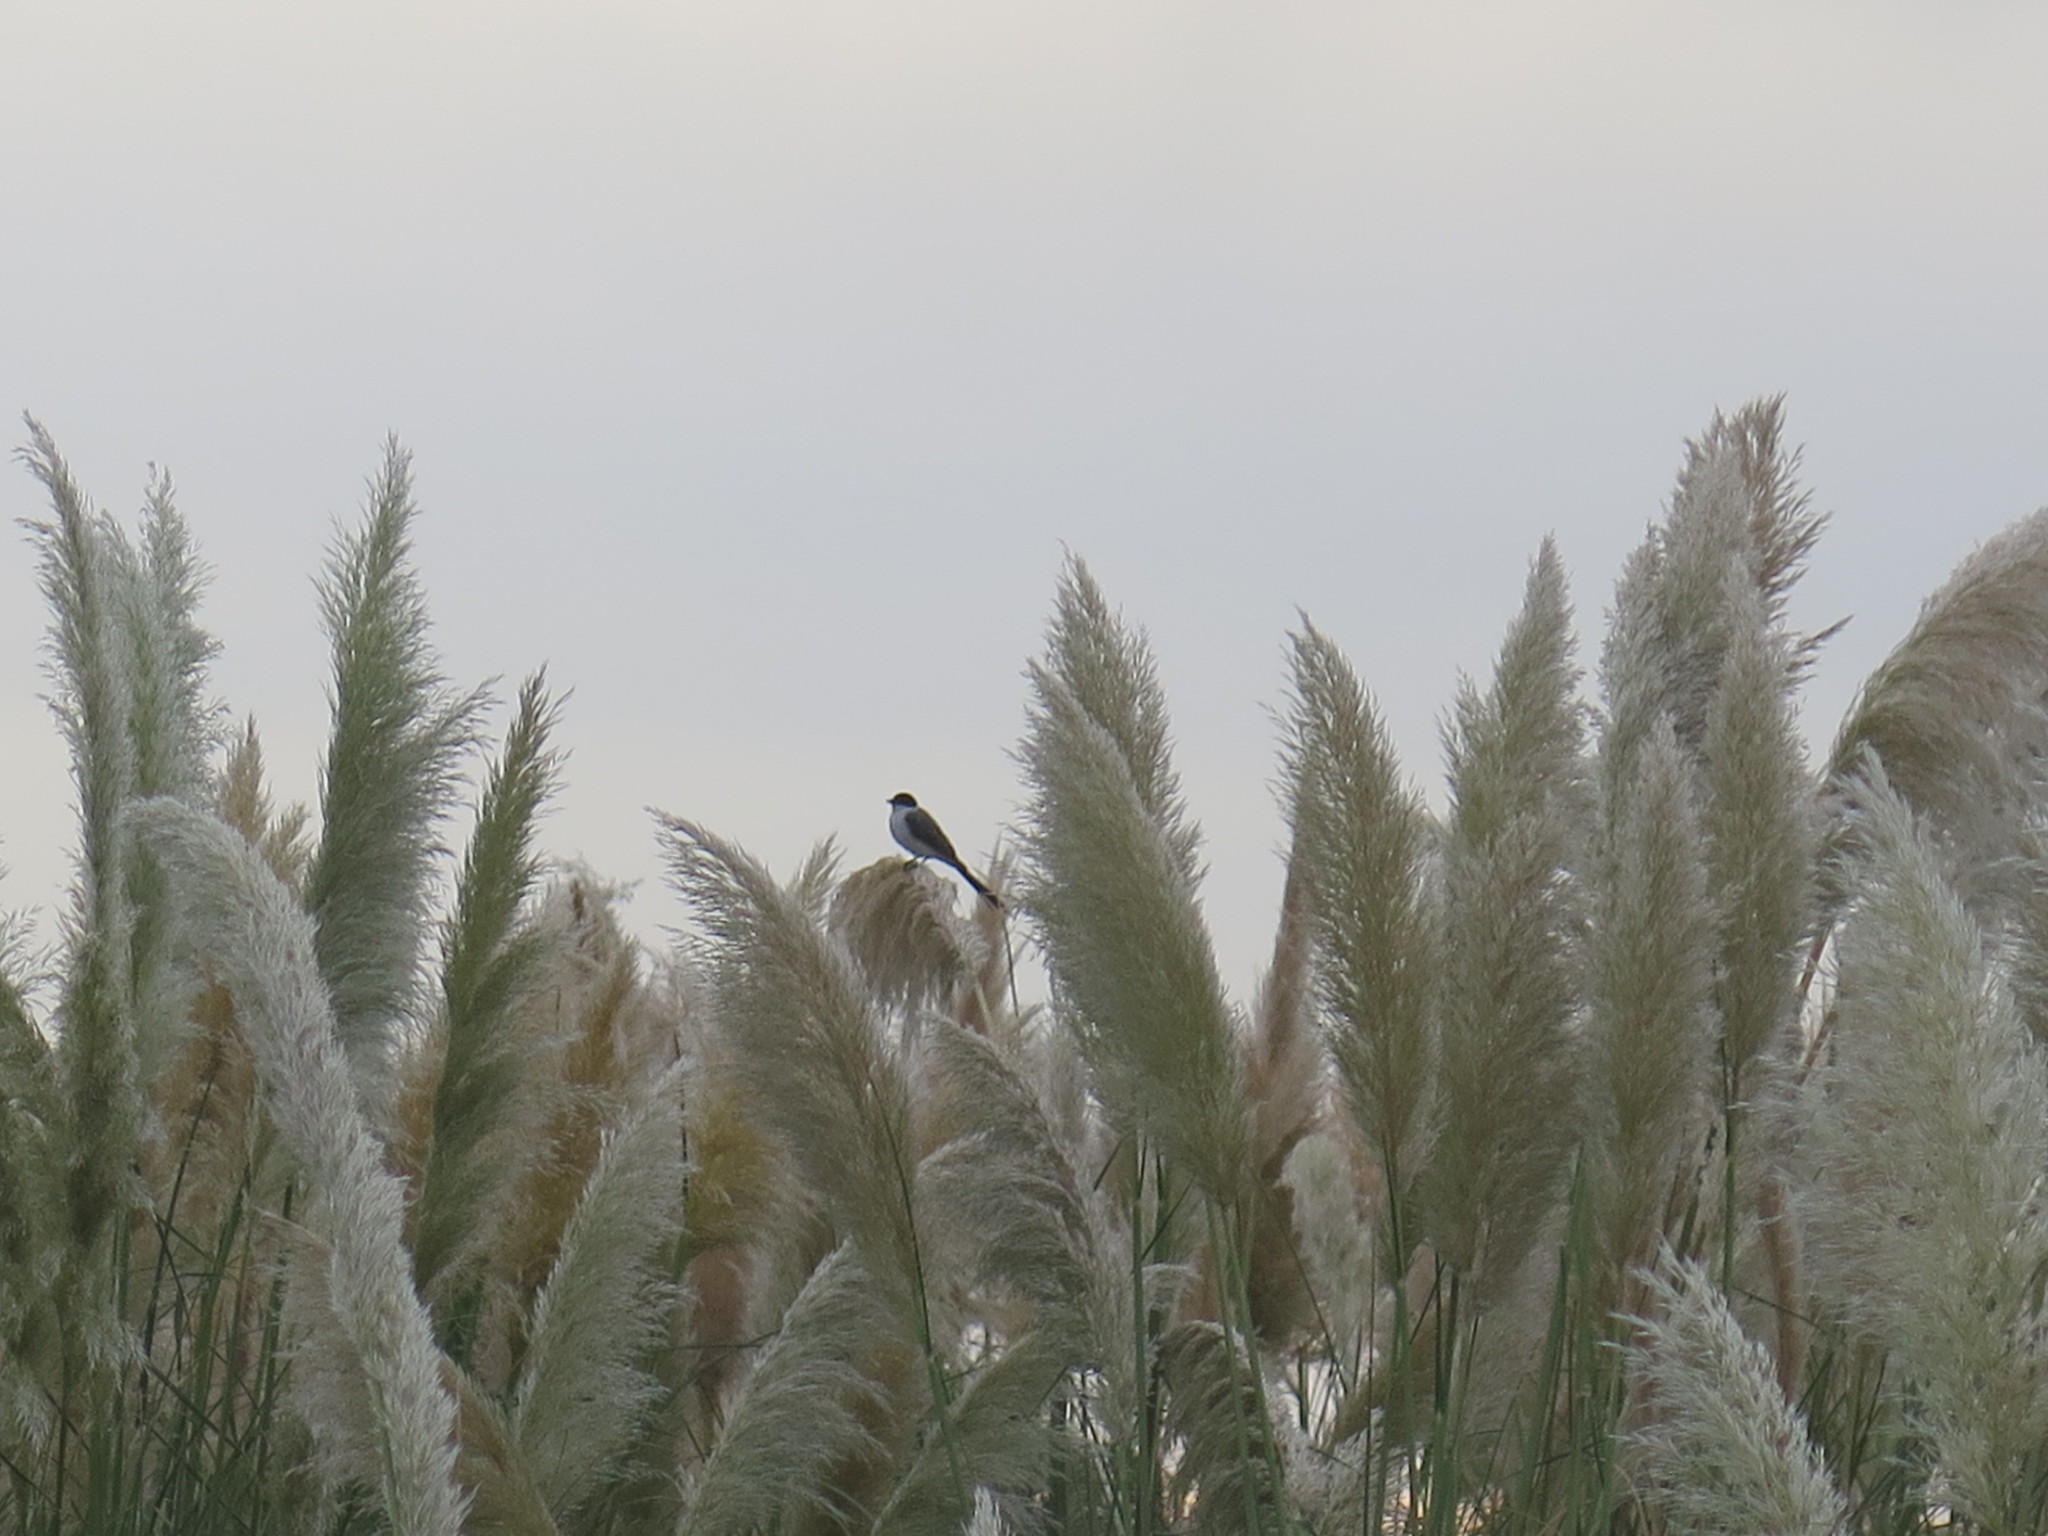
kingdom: Animalia
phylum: Chordata
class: Aves
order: Passeriformes
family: Tyrannidae
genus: Tyrannus
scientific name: Tyrannus savana
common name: Fork-tailed flycatcher
